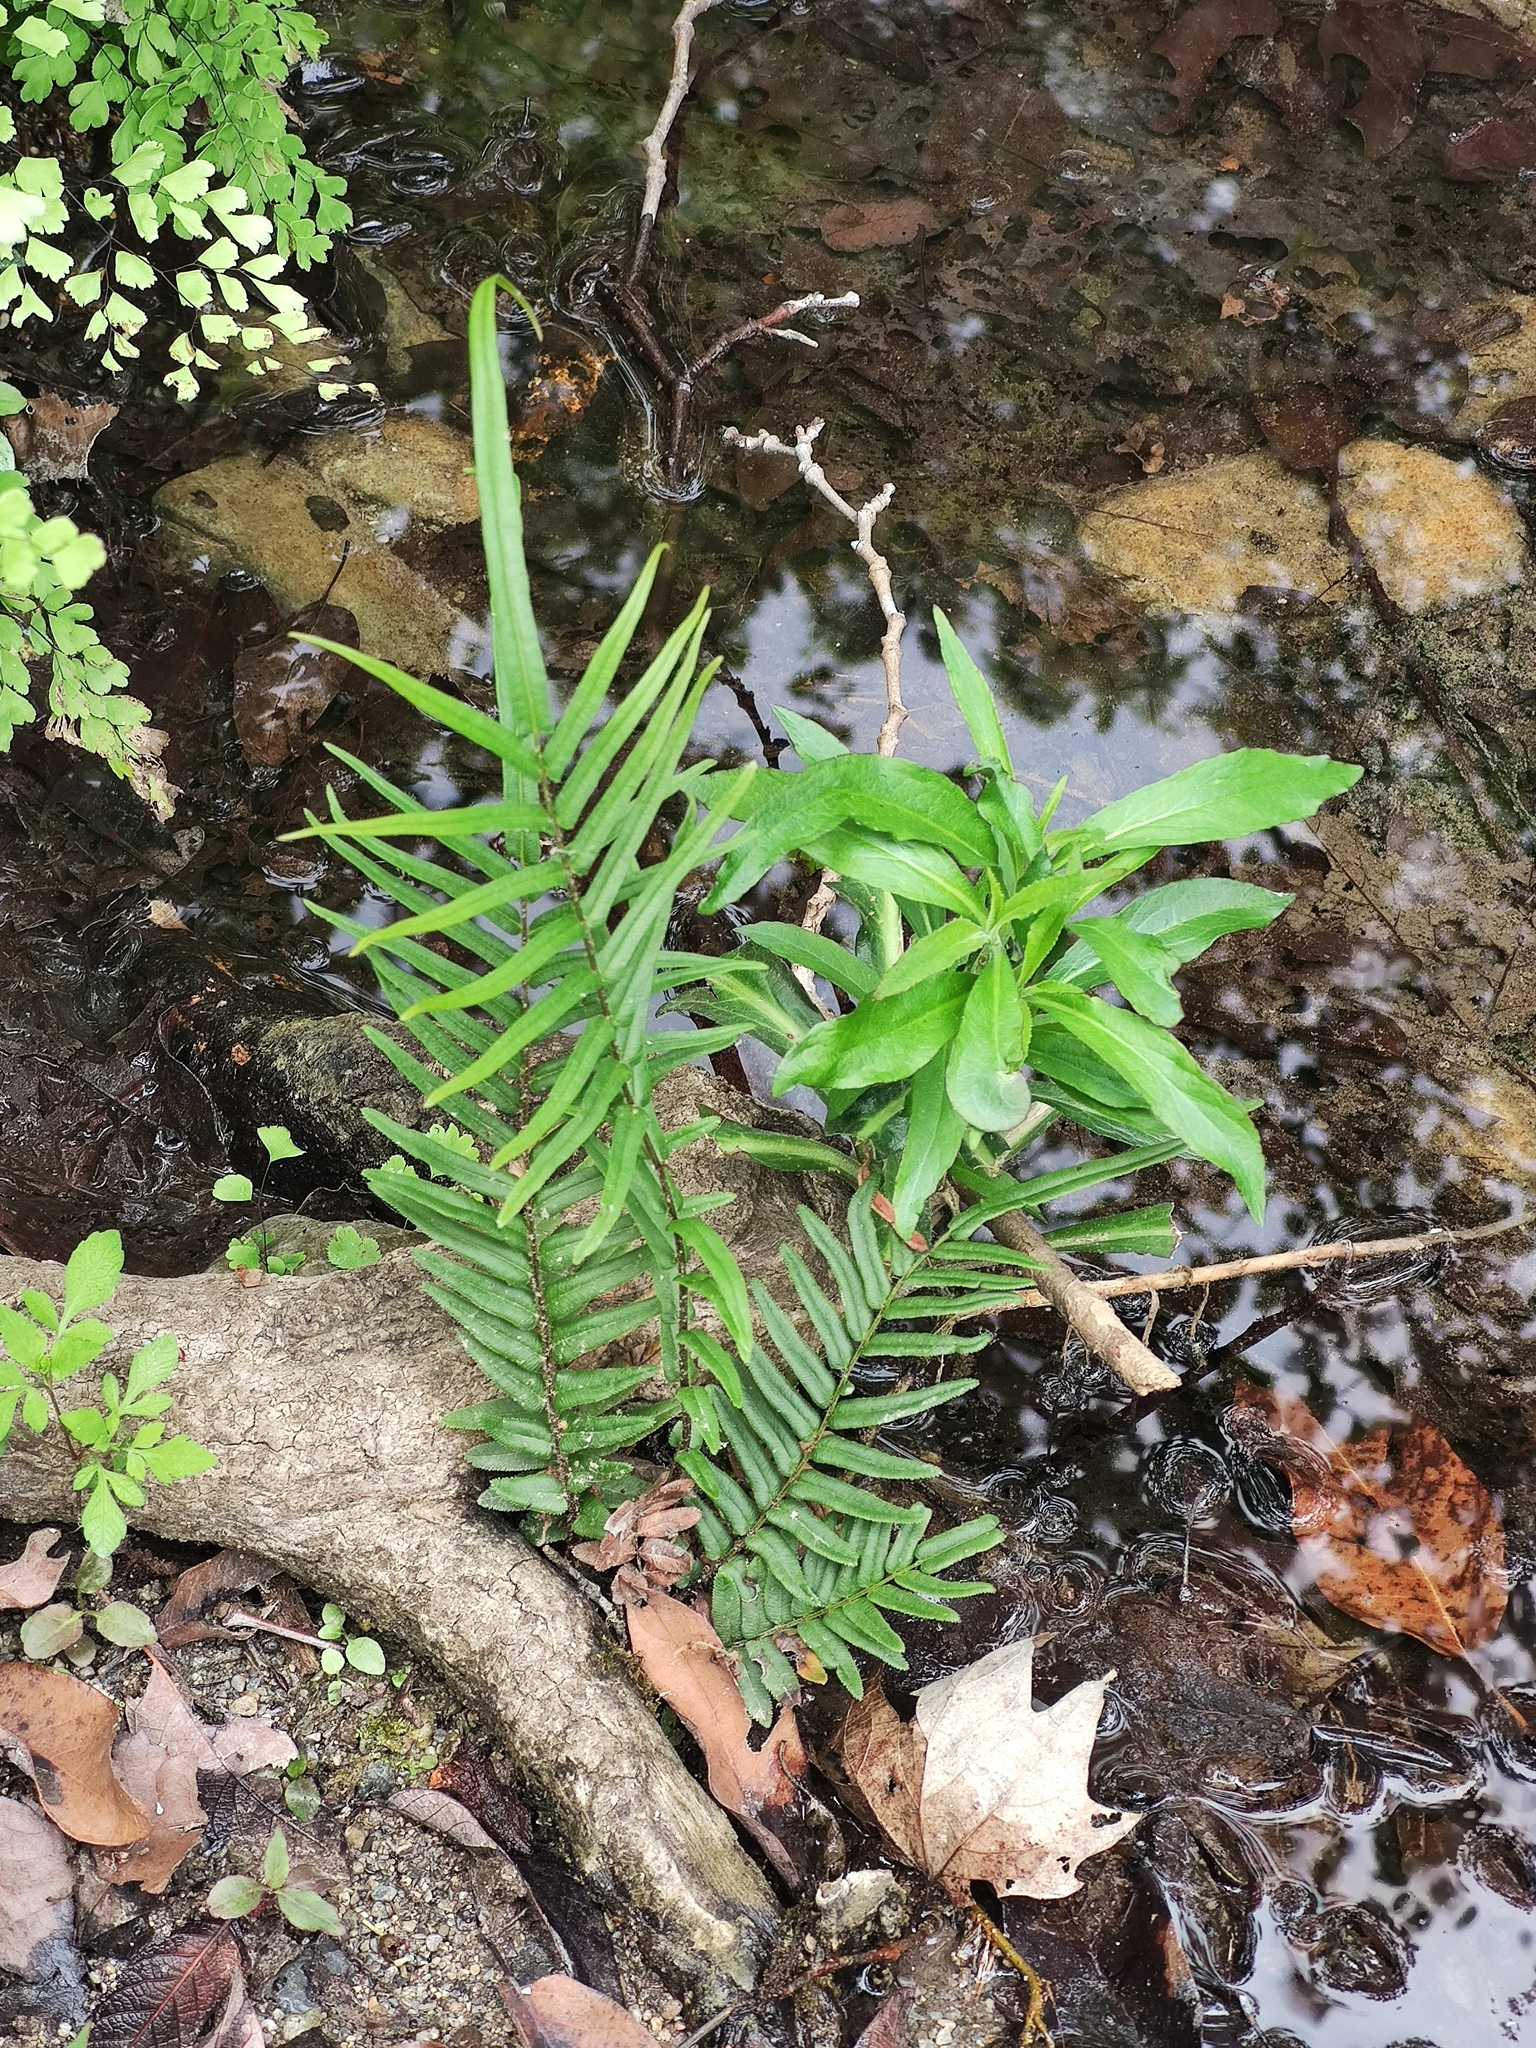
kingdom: Plantae
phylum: Tracheophyta
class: Polypodiopsida
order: Polypodiales
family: Pteridaceae
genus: Pteris
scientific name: Pteris vittata
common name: Ladder brake
